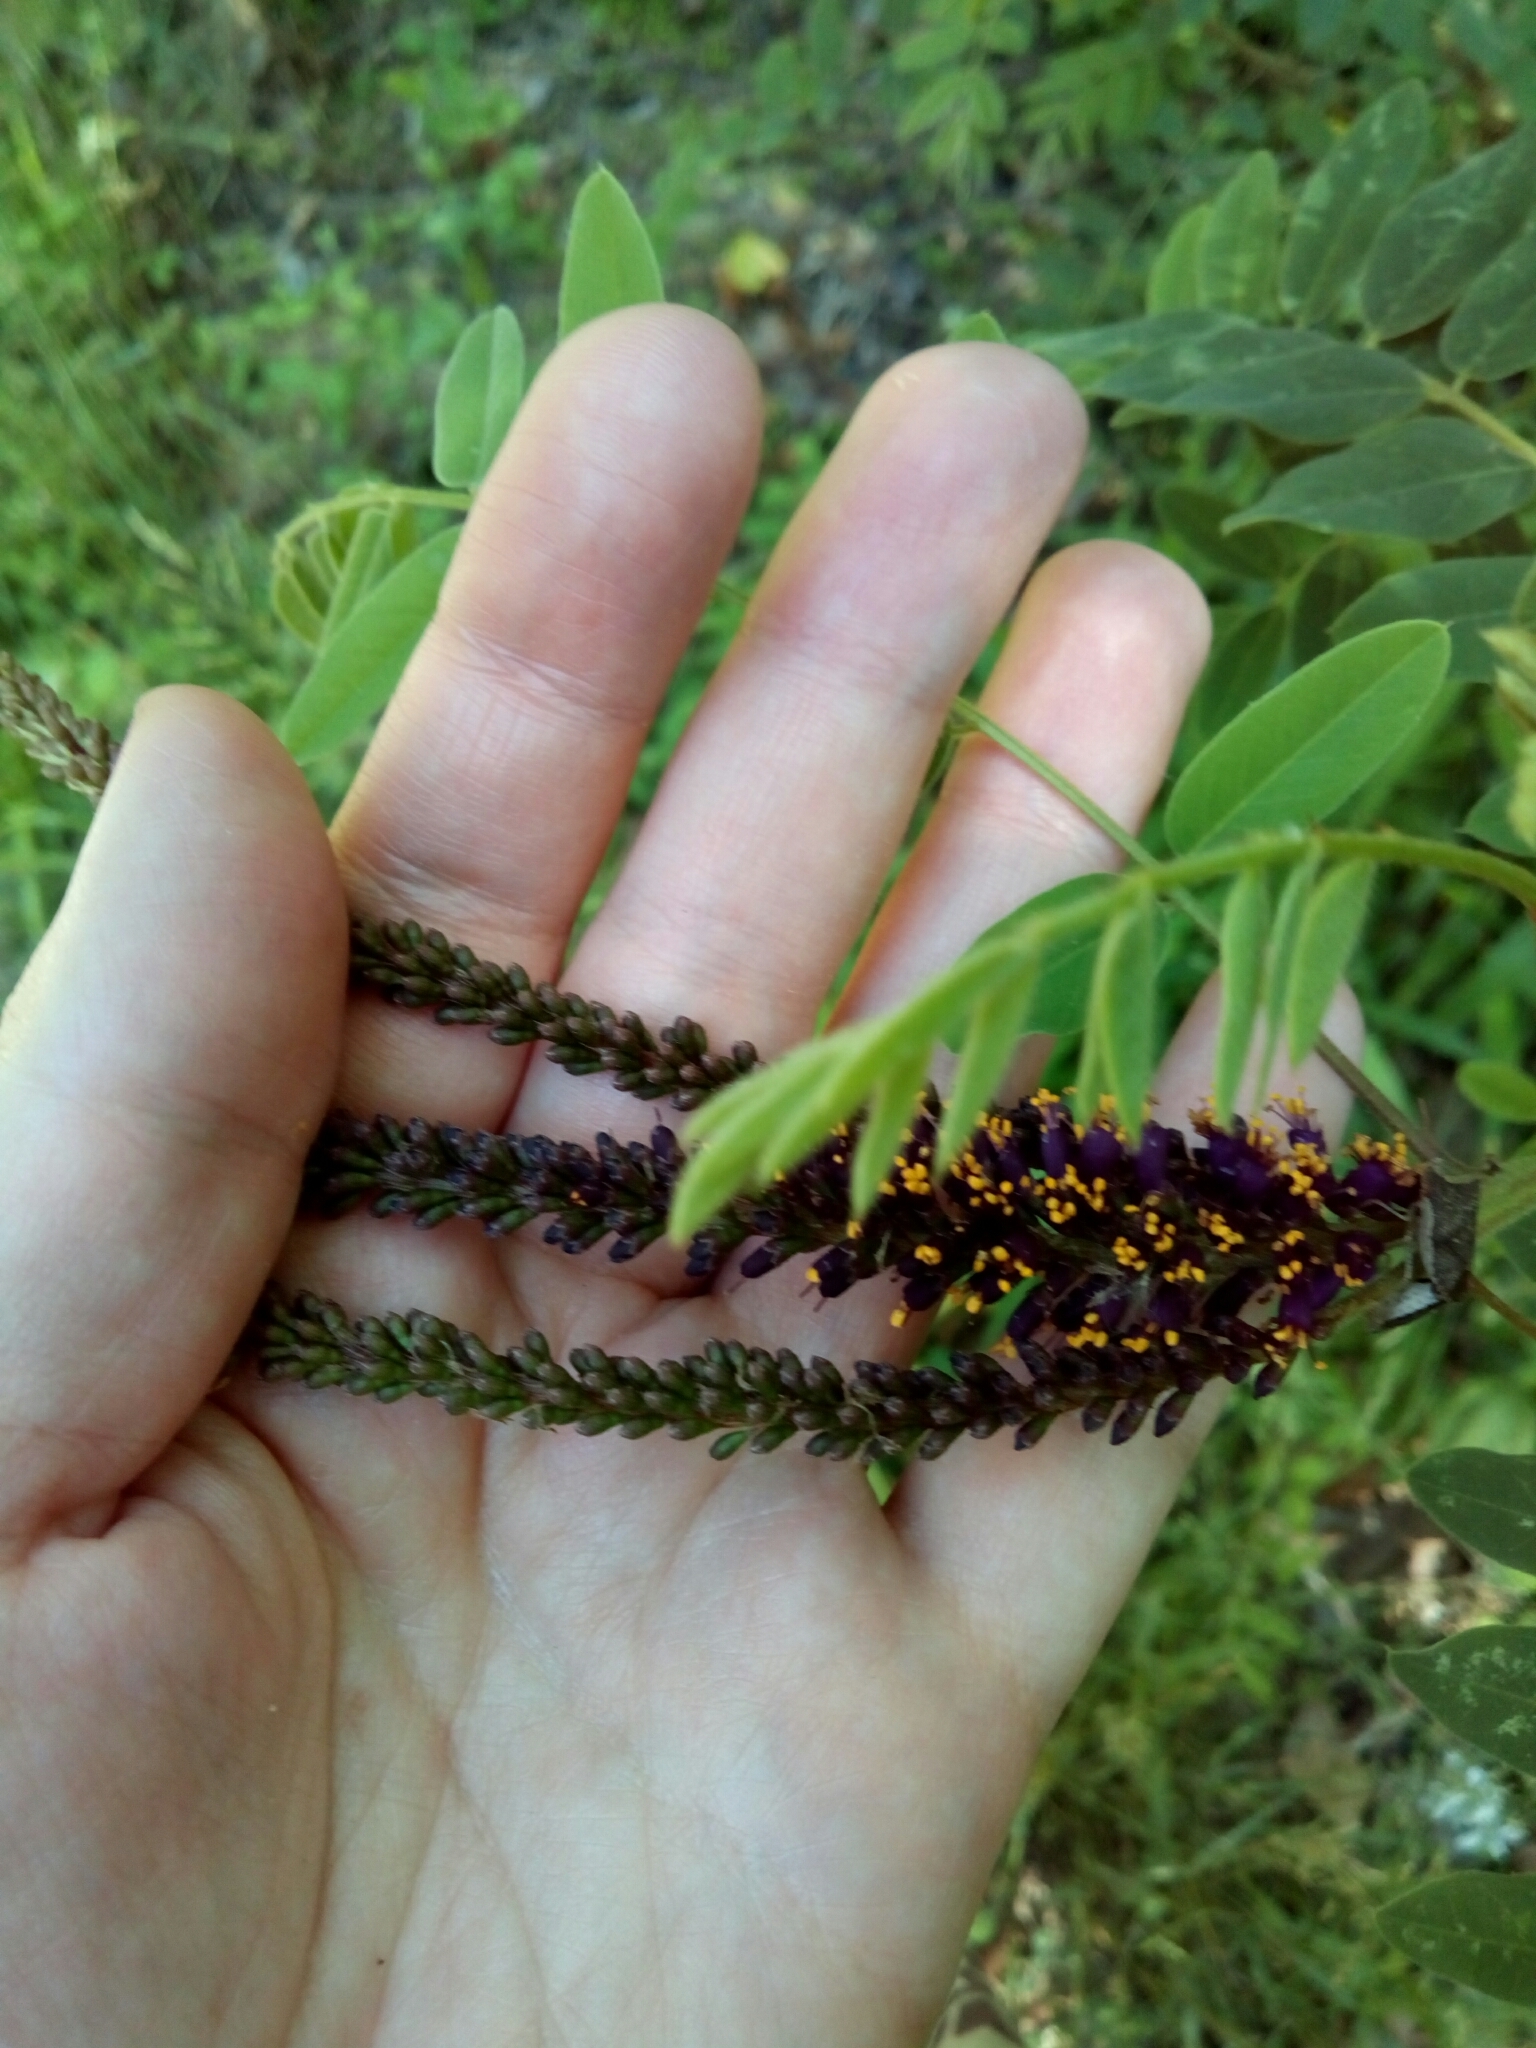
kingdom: Plantae
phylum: Tracheophyta
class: Magnoliopsida
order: Fabales
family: Fabaceae
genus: Amorpha
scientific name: Amorpha fruticosa
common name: False indigo
